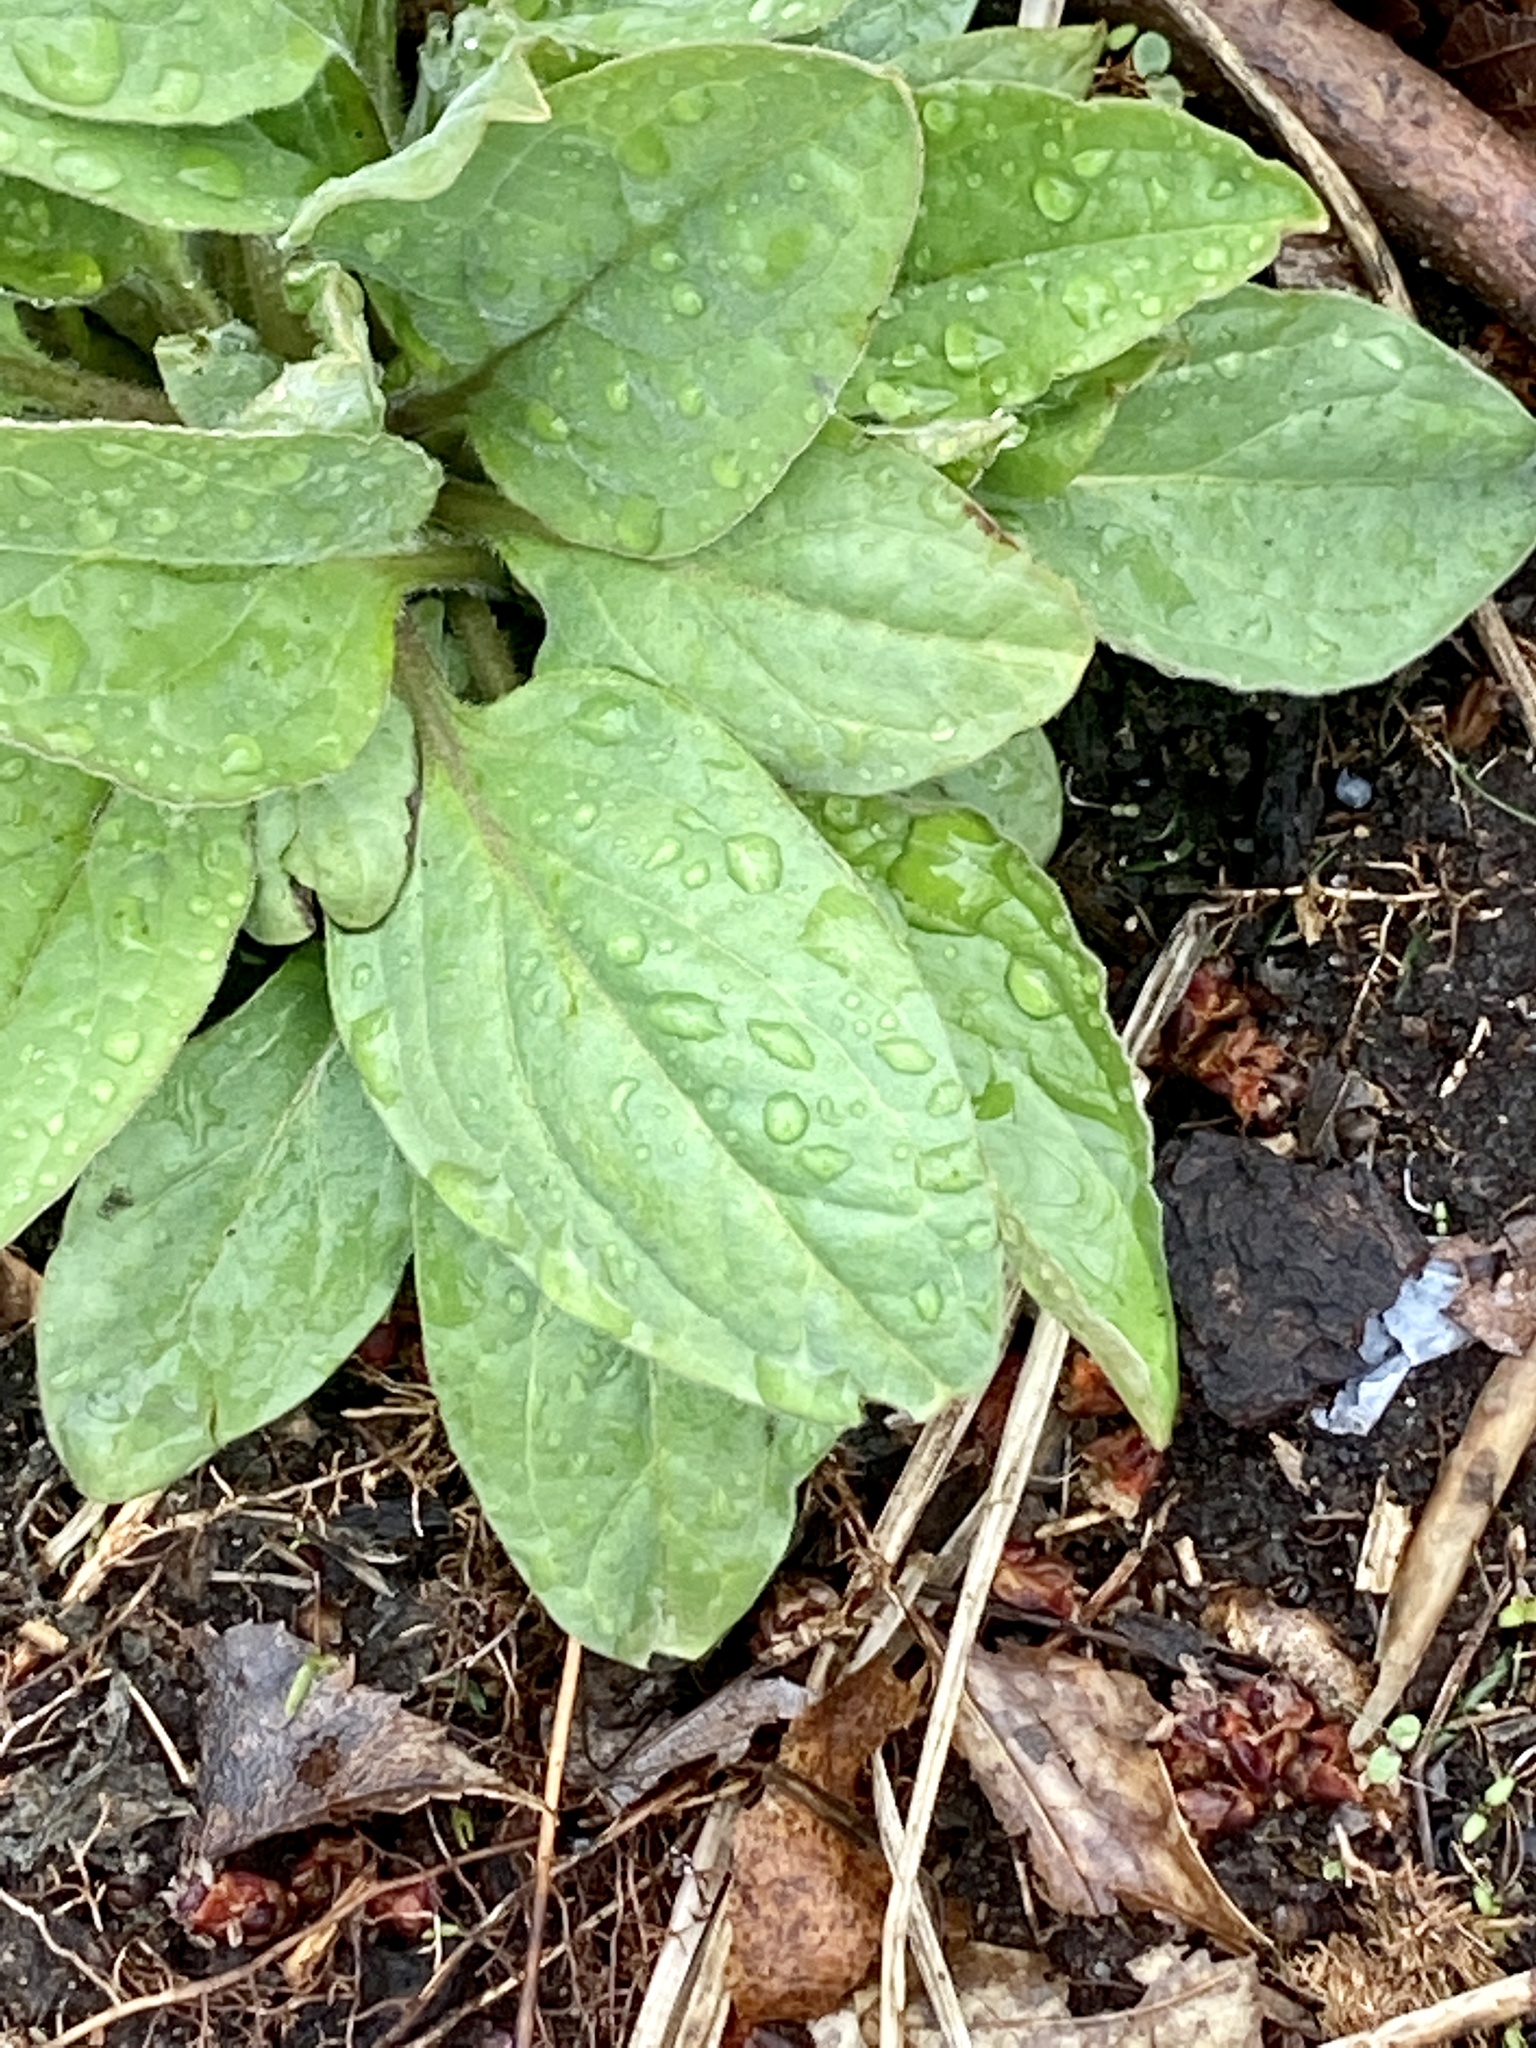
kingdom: Plantae
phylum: Tracheophyta
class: Magnoliopsida
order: Boraginales
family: Boraginaceae
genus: Hackelia
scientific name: Hackelia virginiana
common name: Beggar's-lice
